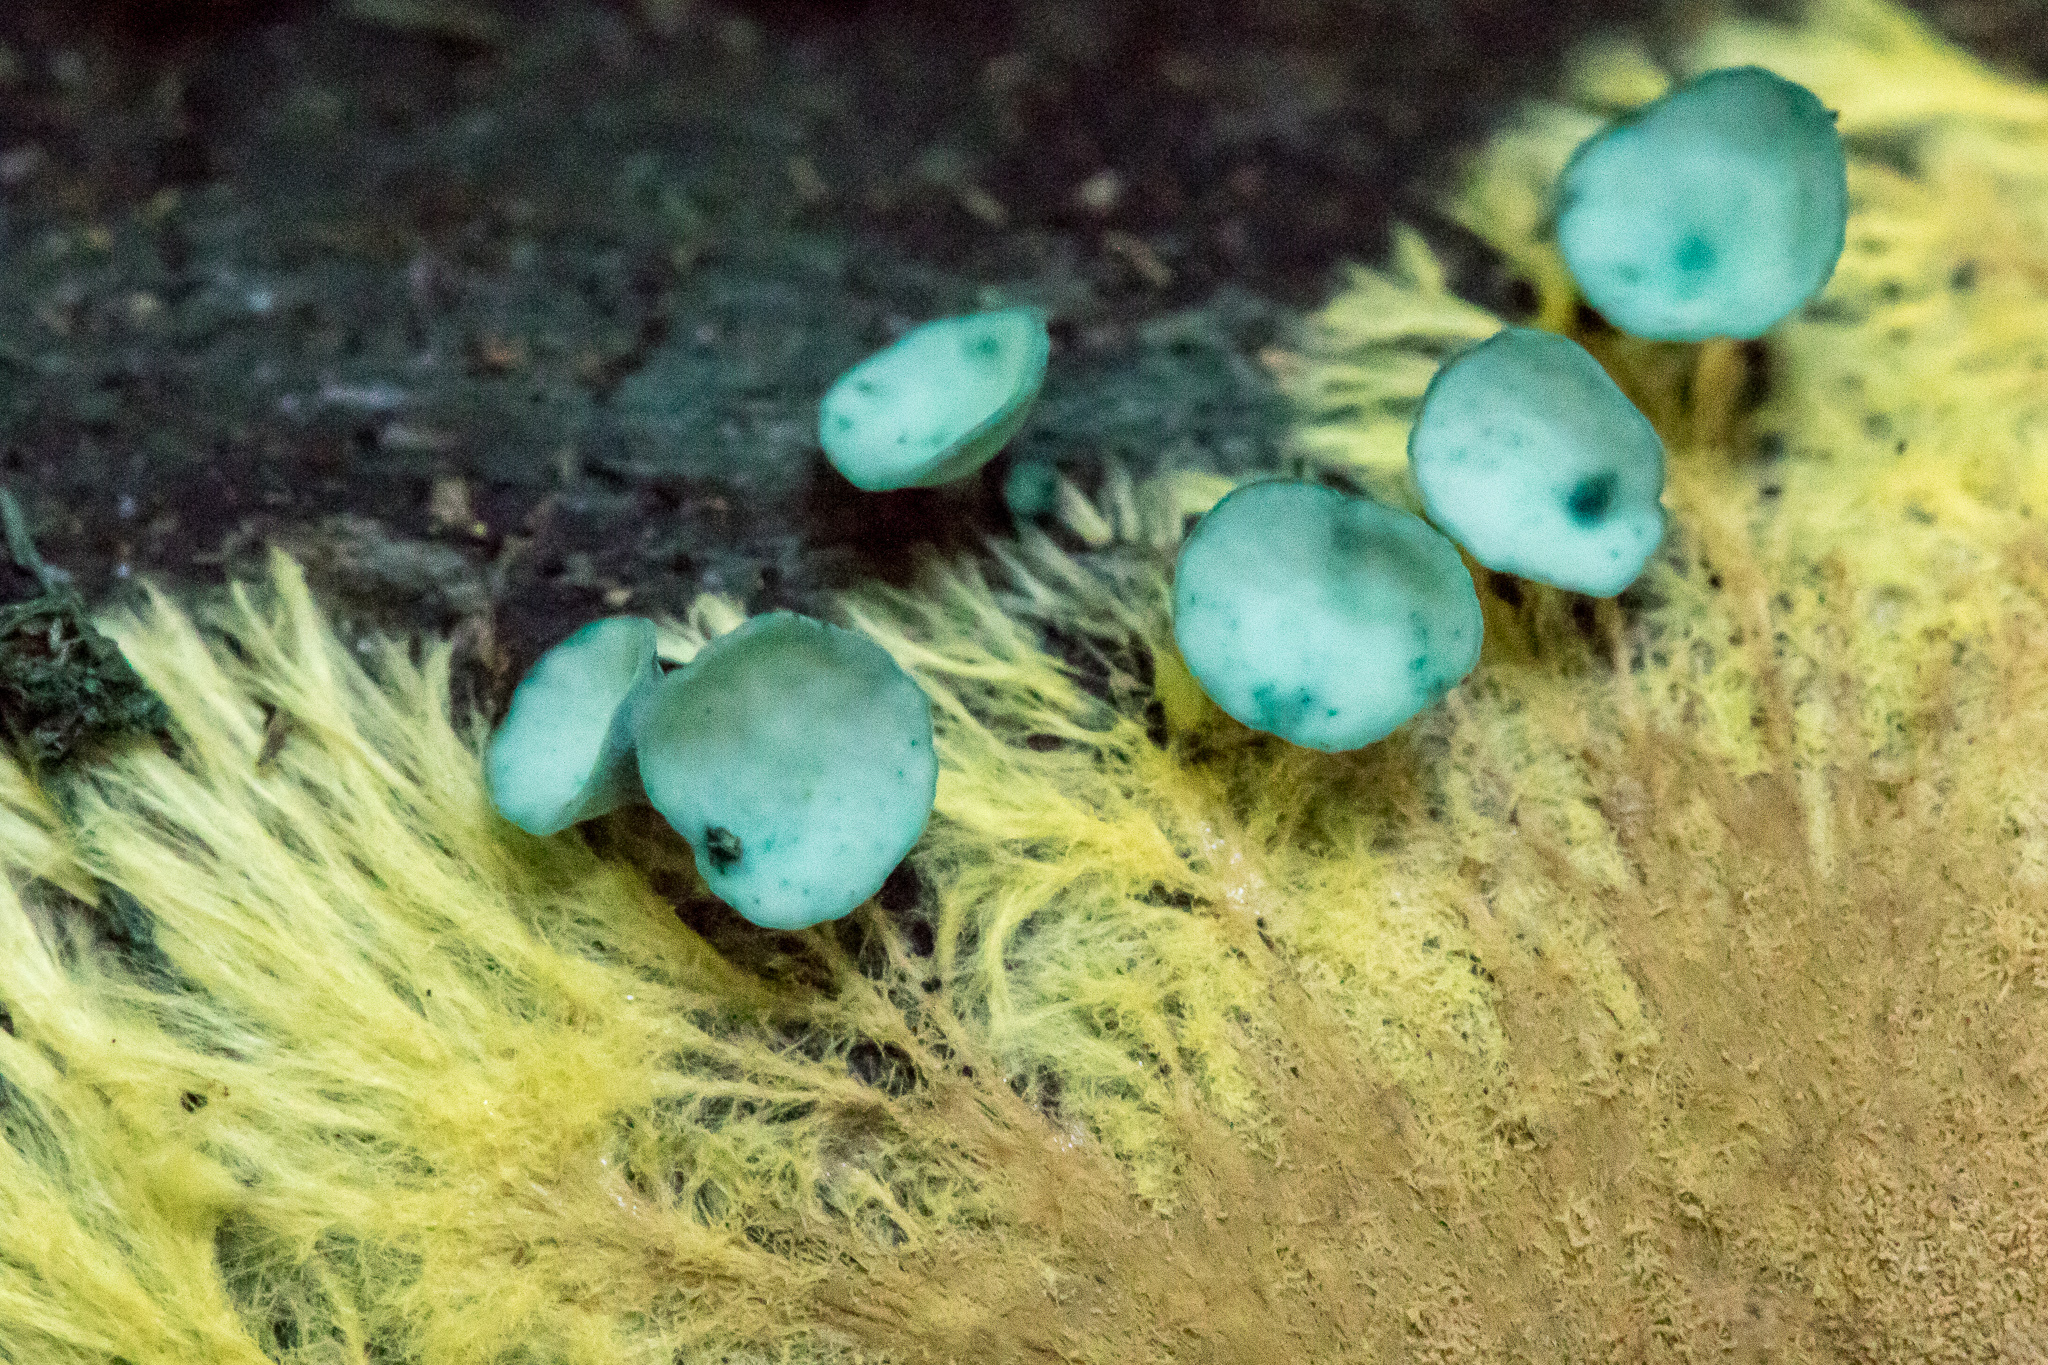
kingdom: Fungi
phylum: Ascomycota
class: Leotiomycetes
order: Helotiales
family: Chlorociboriaceae
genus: Chlorociboria
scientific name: Chlorociboria aeruginascens
